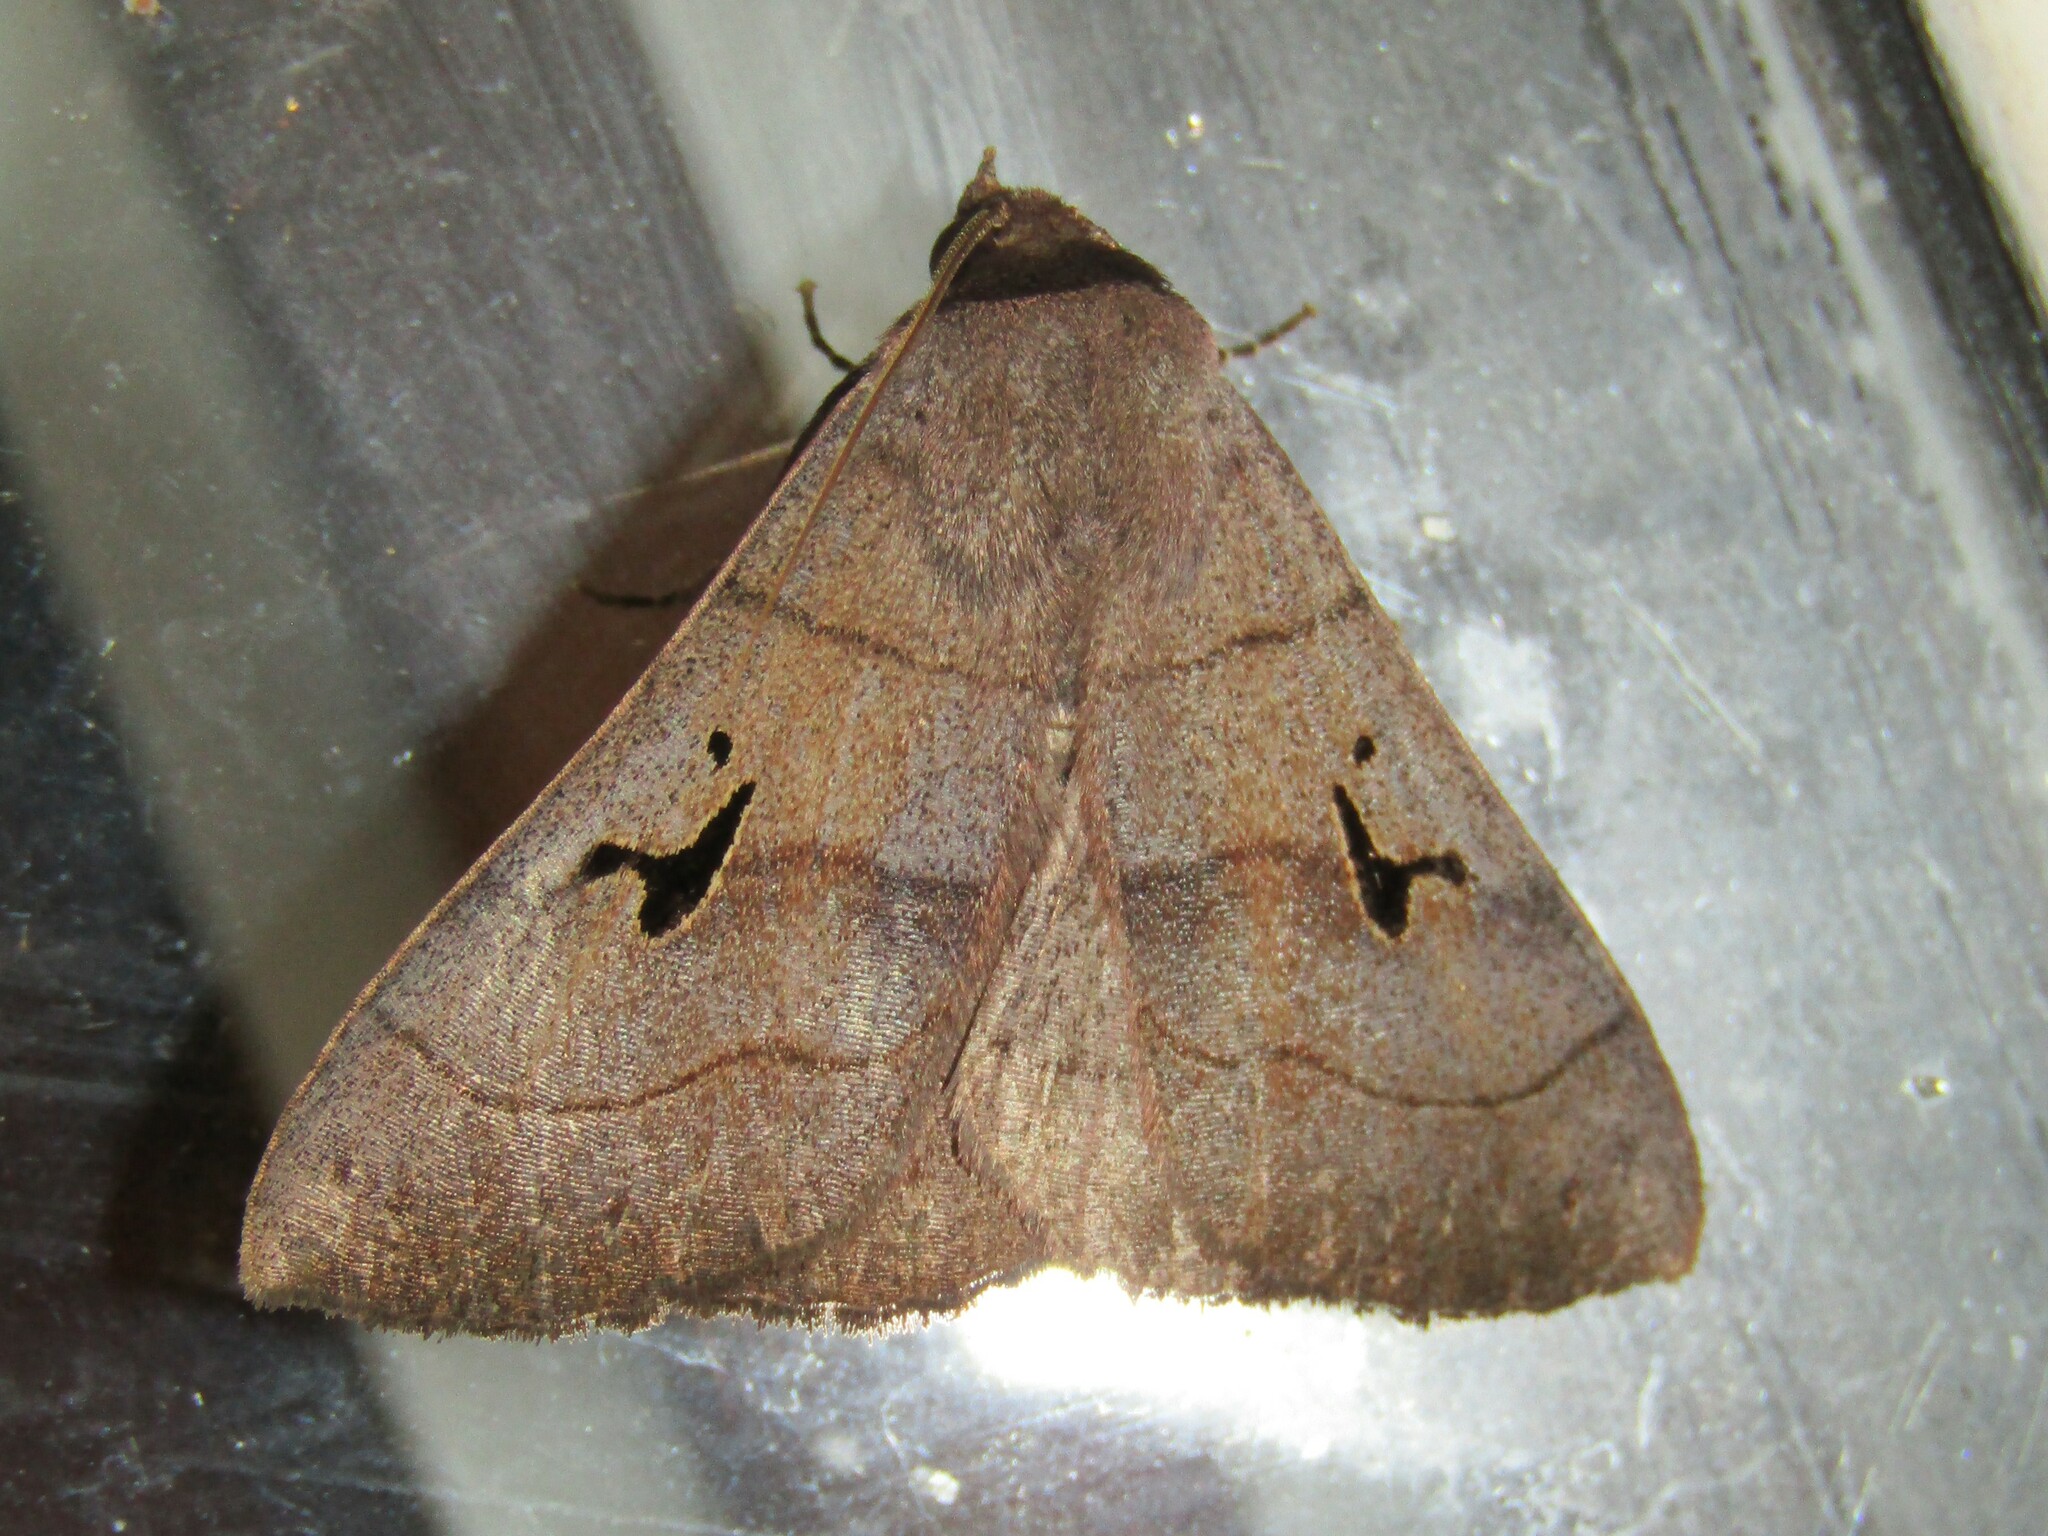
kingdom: Animalia
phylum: Arthropoda
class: Insecta
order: Lepidoptera
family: Erebidae
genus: Panopoda
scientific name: Panopoda carneicosta
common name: Brown panopoda moth
